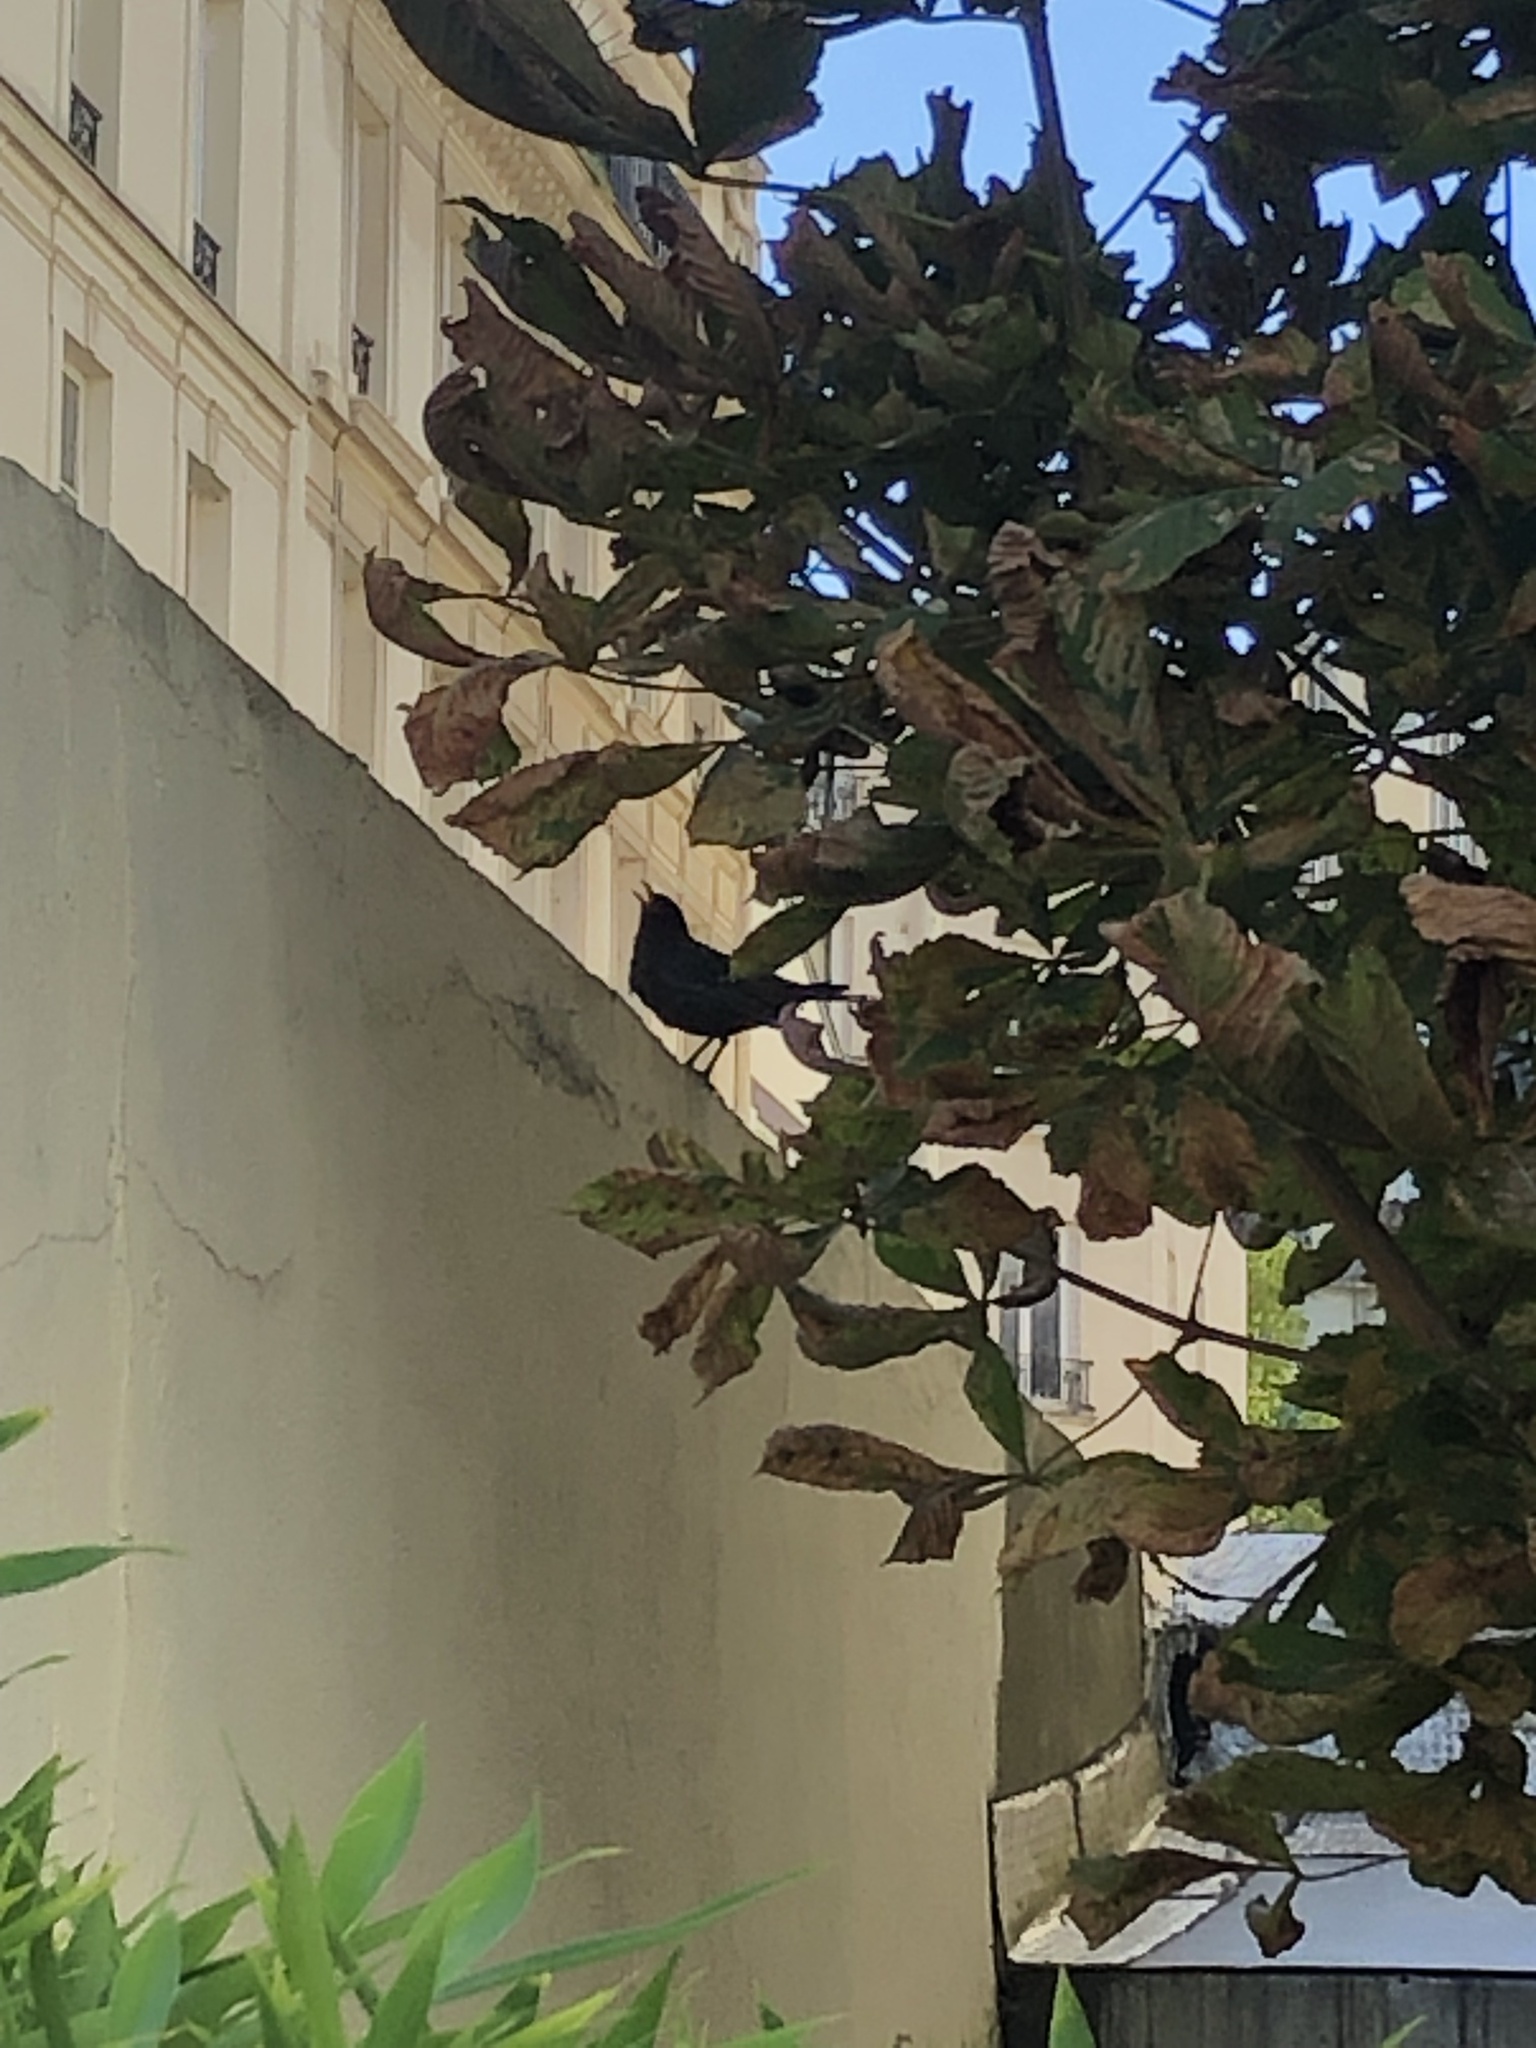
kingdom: Animalia
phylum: Chordata
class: Aves
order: Passeriformes
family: Turdidae
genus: Turdus
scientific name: Turdus merula
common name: Common blackbird
